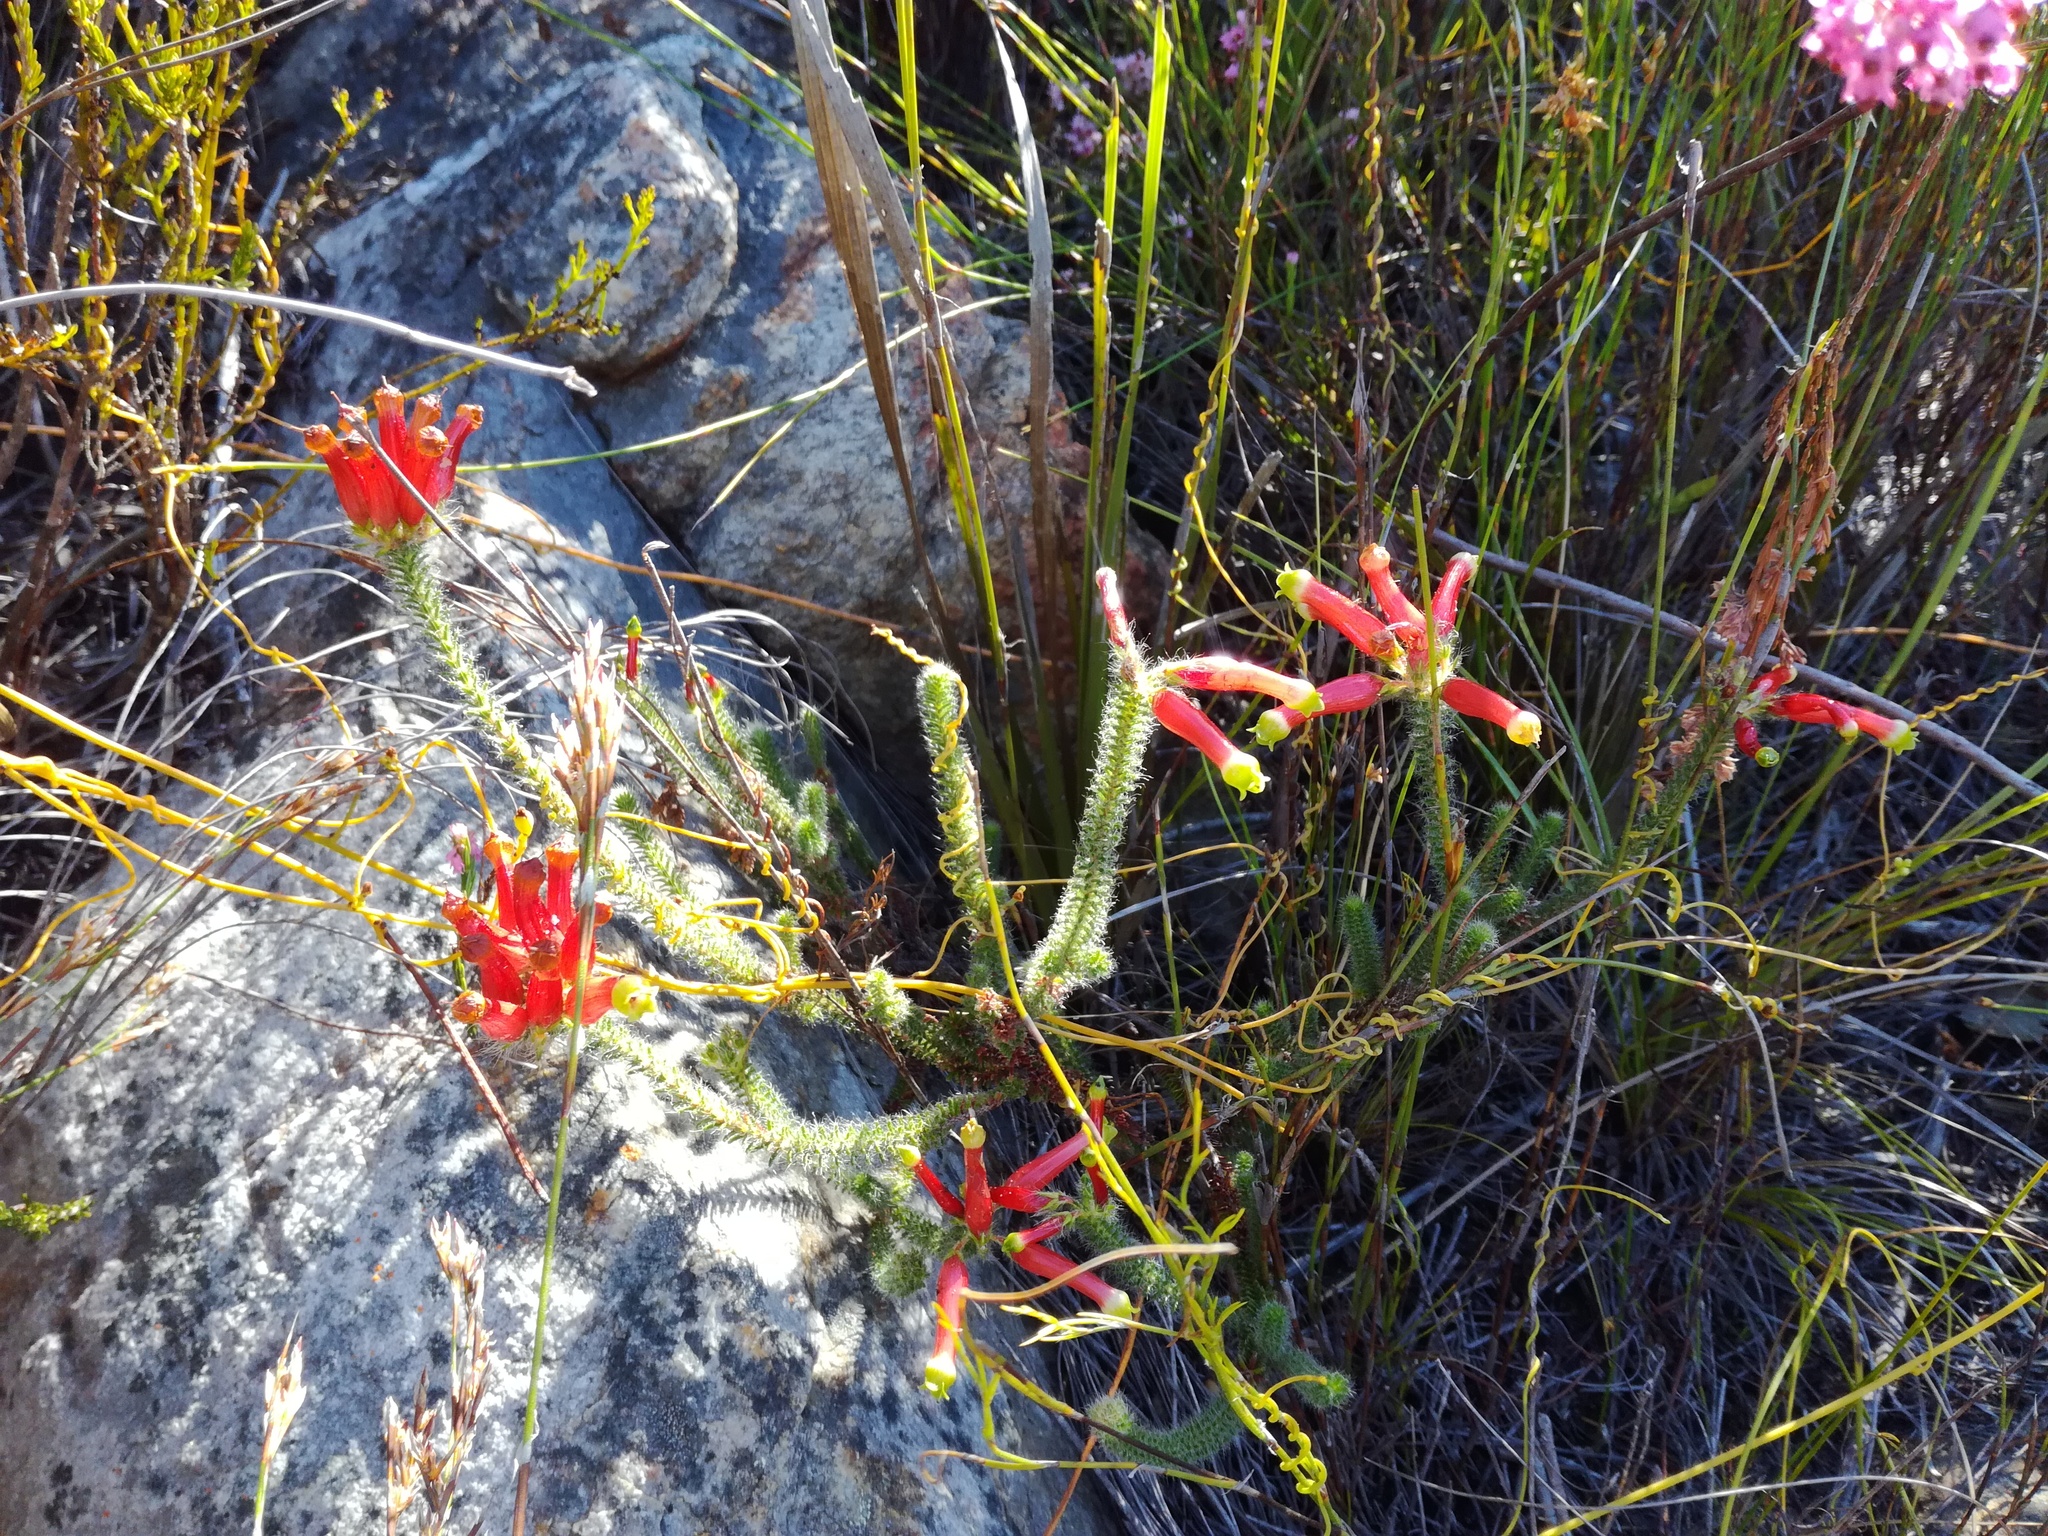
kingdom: Plantae
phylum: Tracheophyta
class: Magnoliopsida
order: Ericales
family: Ericaceae
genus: Erica
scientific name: Erica massonii
